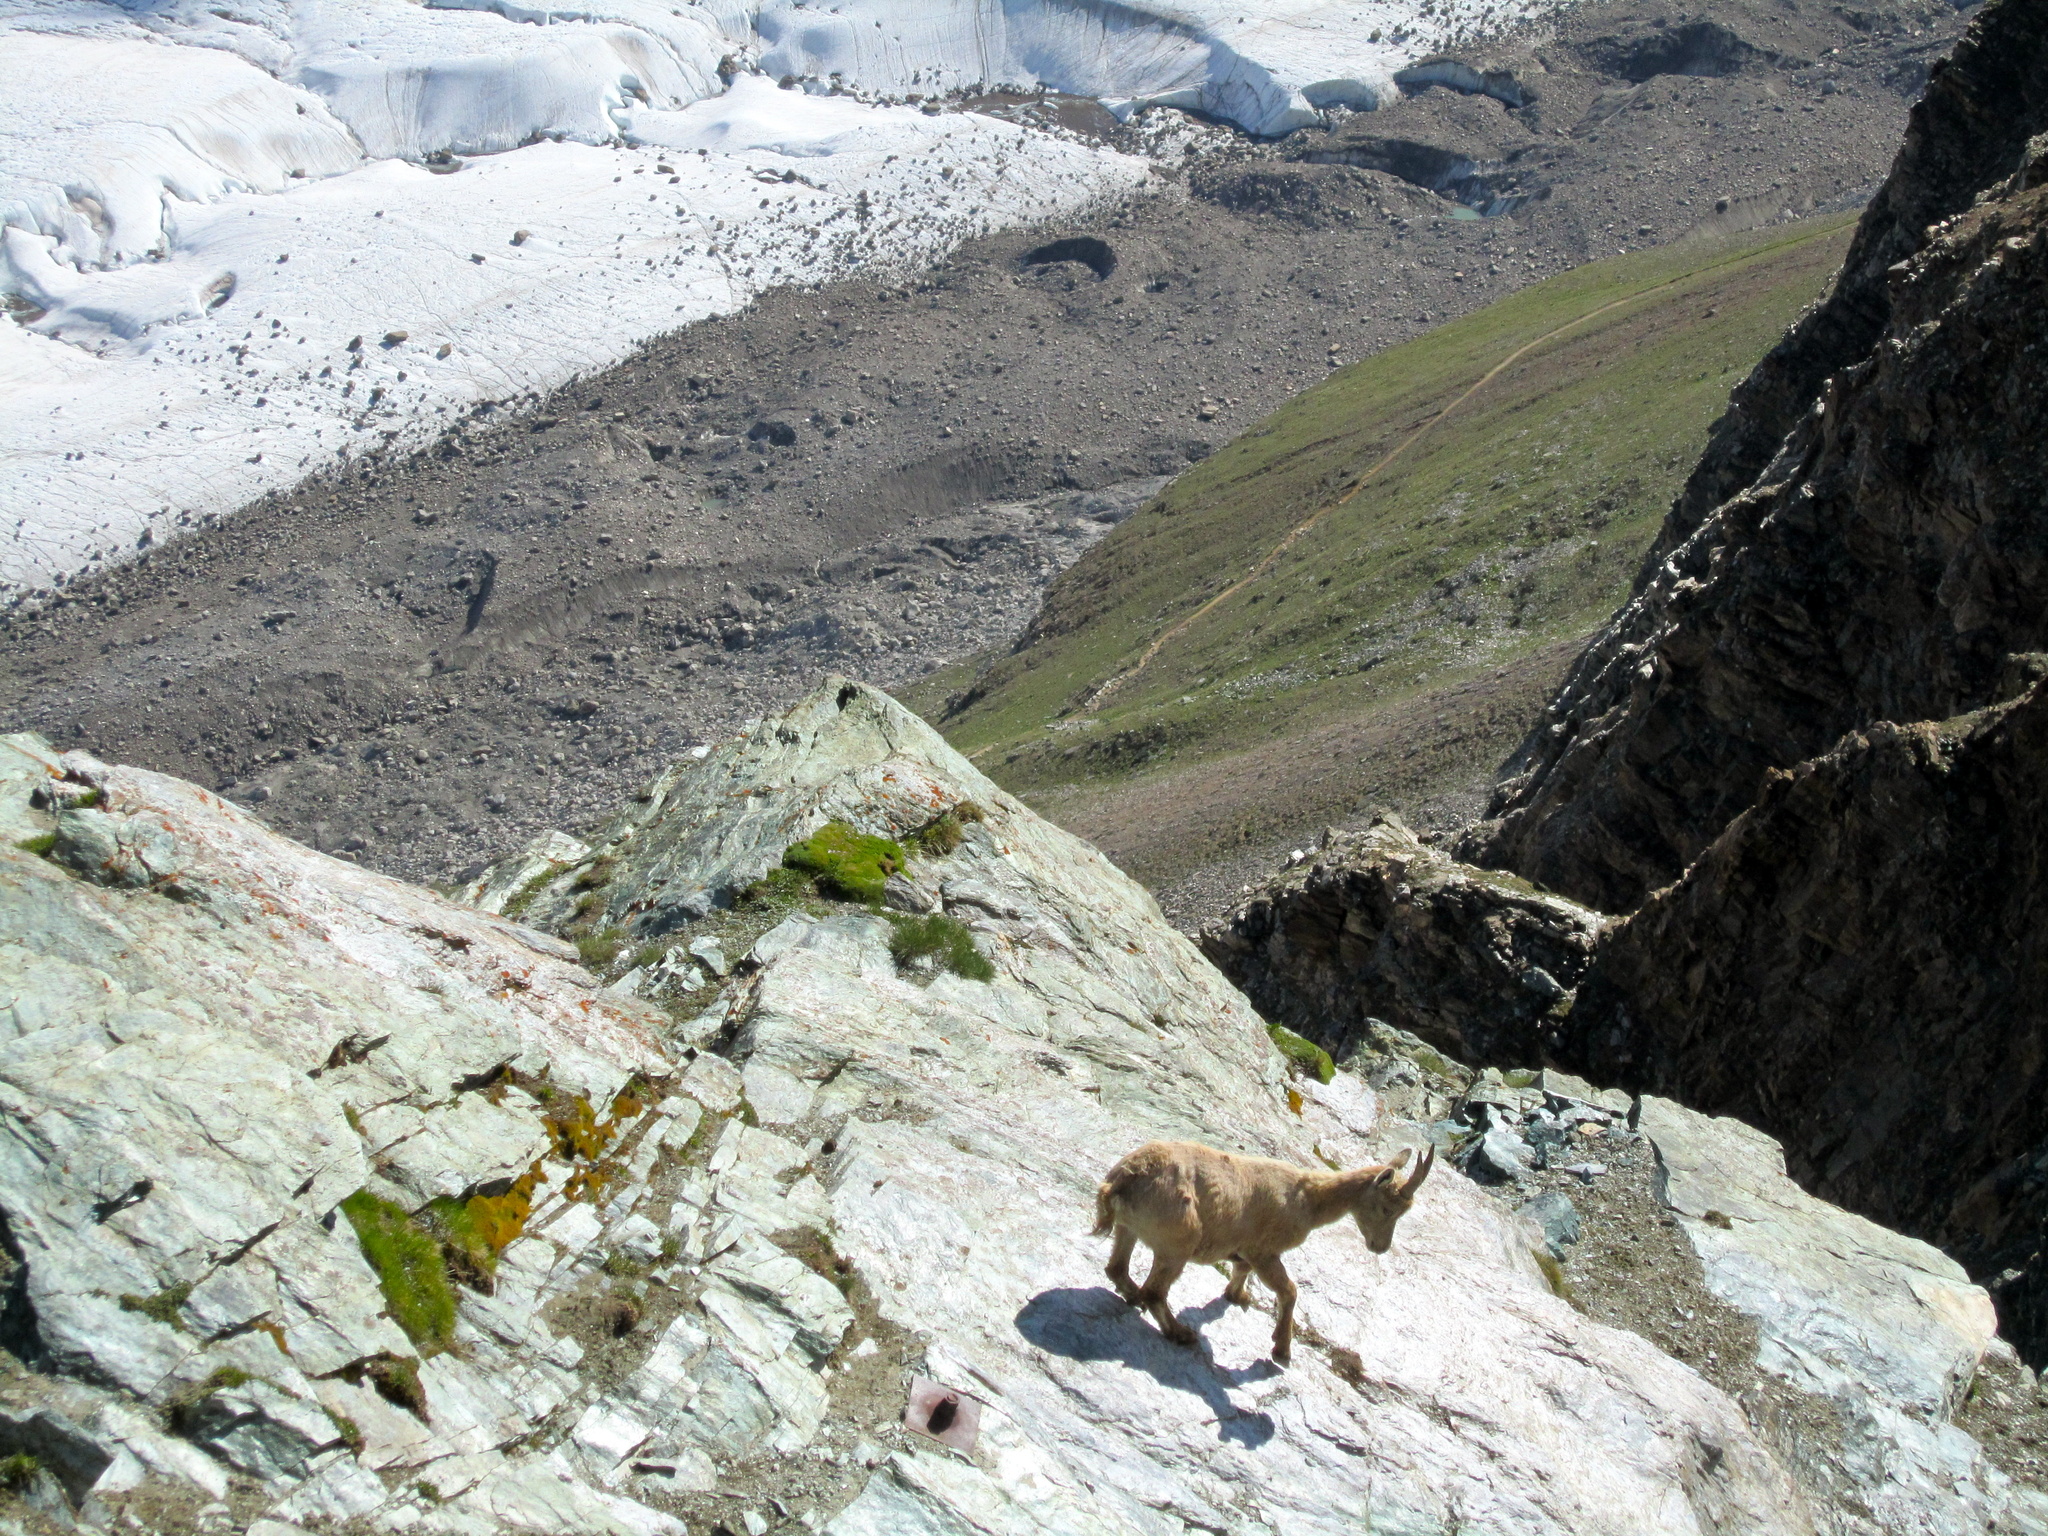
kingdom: Animalia
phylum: Chordata
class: Mammalia
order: Artiodactyla
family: Bovidae
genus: Capra
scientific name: Capra ibex
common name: Alpine ibex
